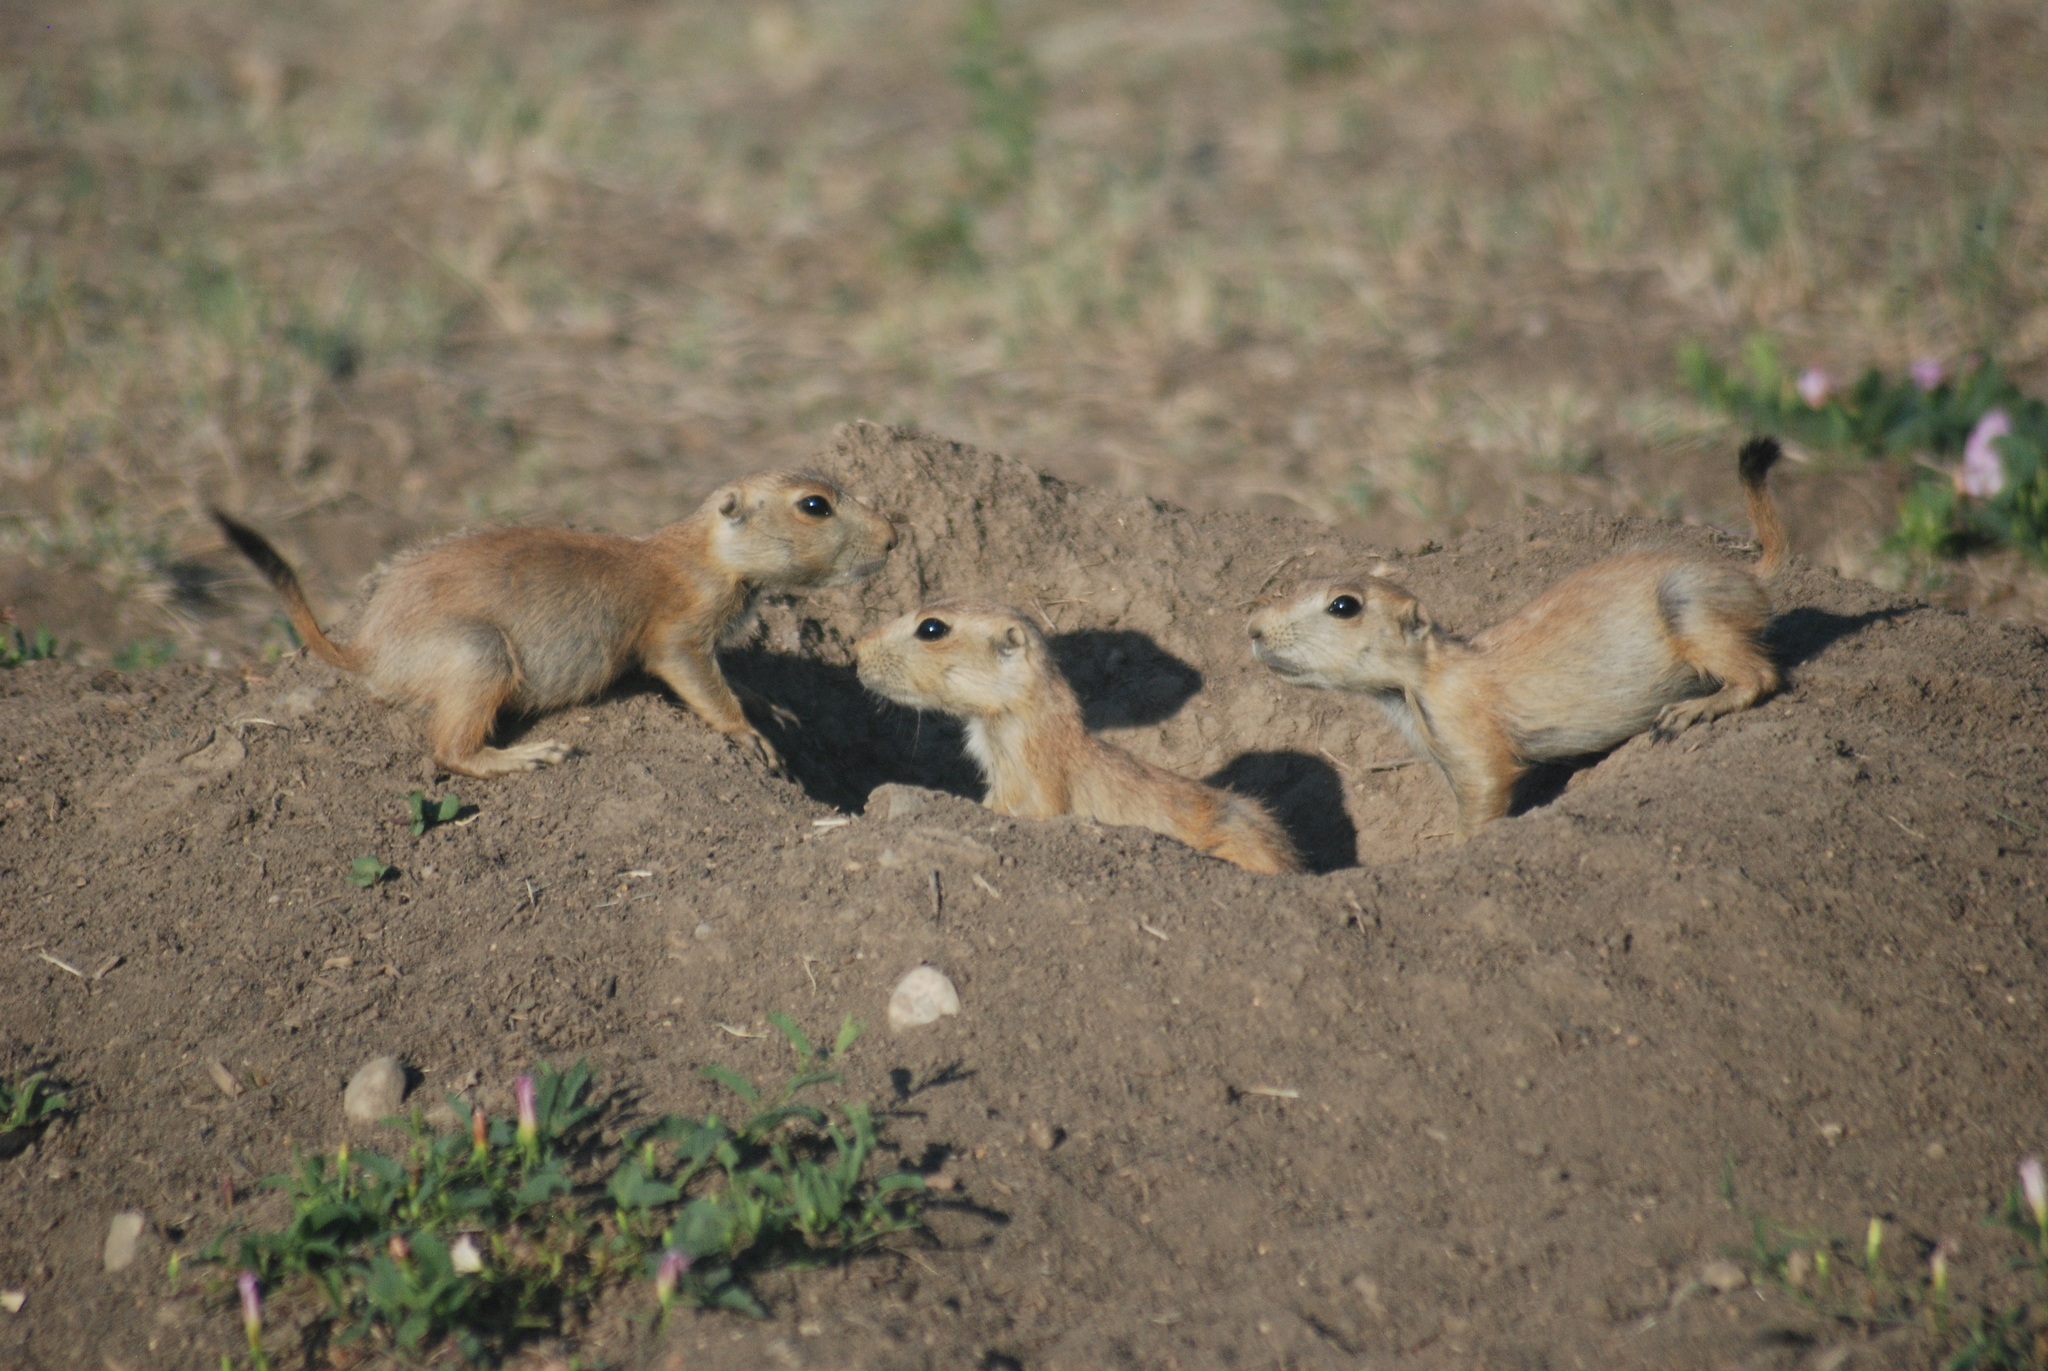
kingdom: Animalia
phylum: Chordata
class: Mammalia
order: Rodentia
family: Sciuridae
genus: Cynomys
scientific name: Cynomys ludovicianus
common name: Black-tailed prairie dog
